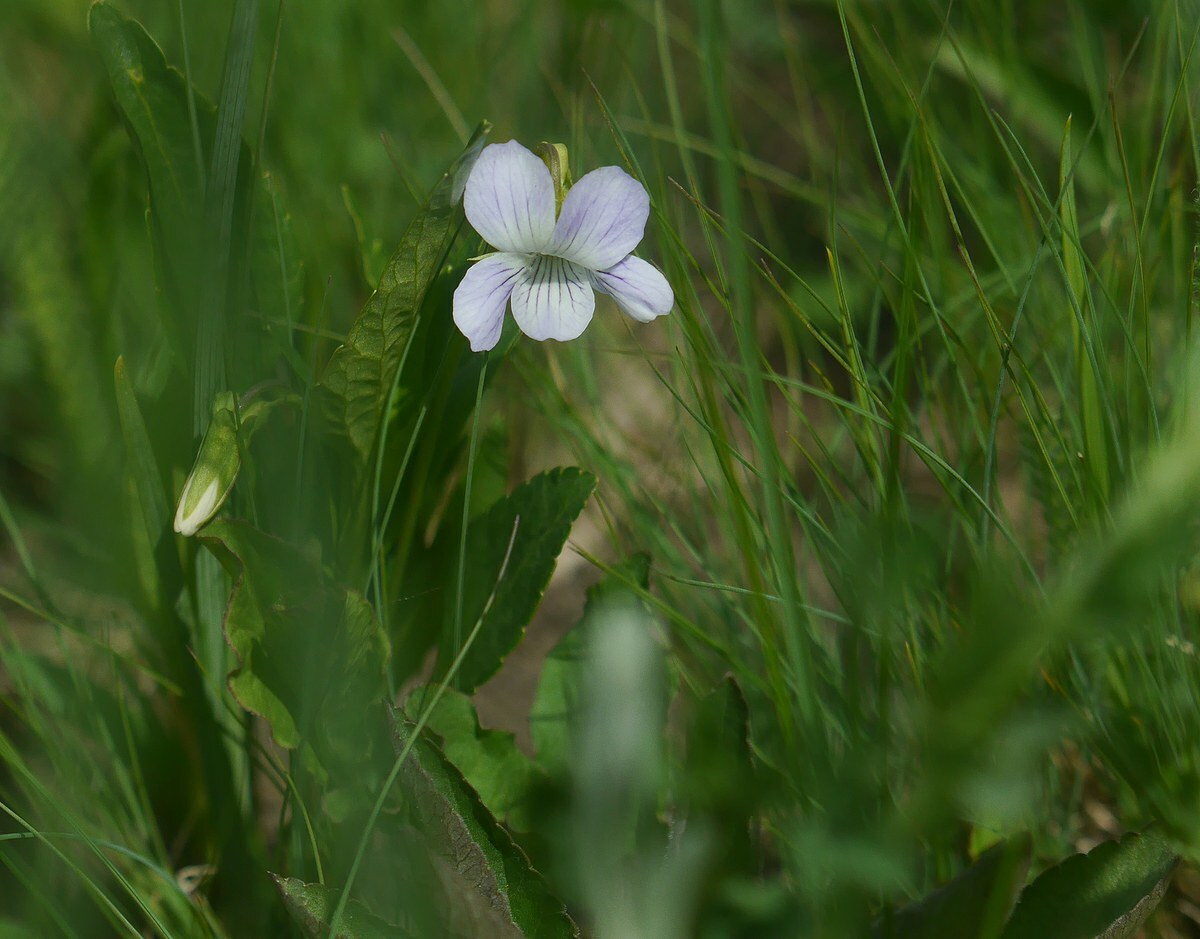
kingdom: Plantae
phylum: Tracheophyta
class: Magnoliopsida
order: Malpighiales
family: Violaceae
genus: Viola
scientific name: Viola pumila
